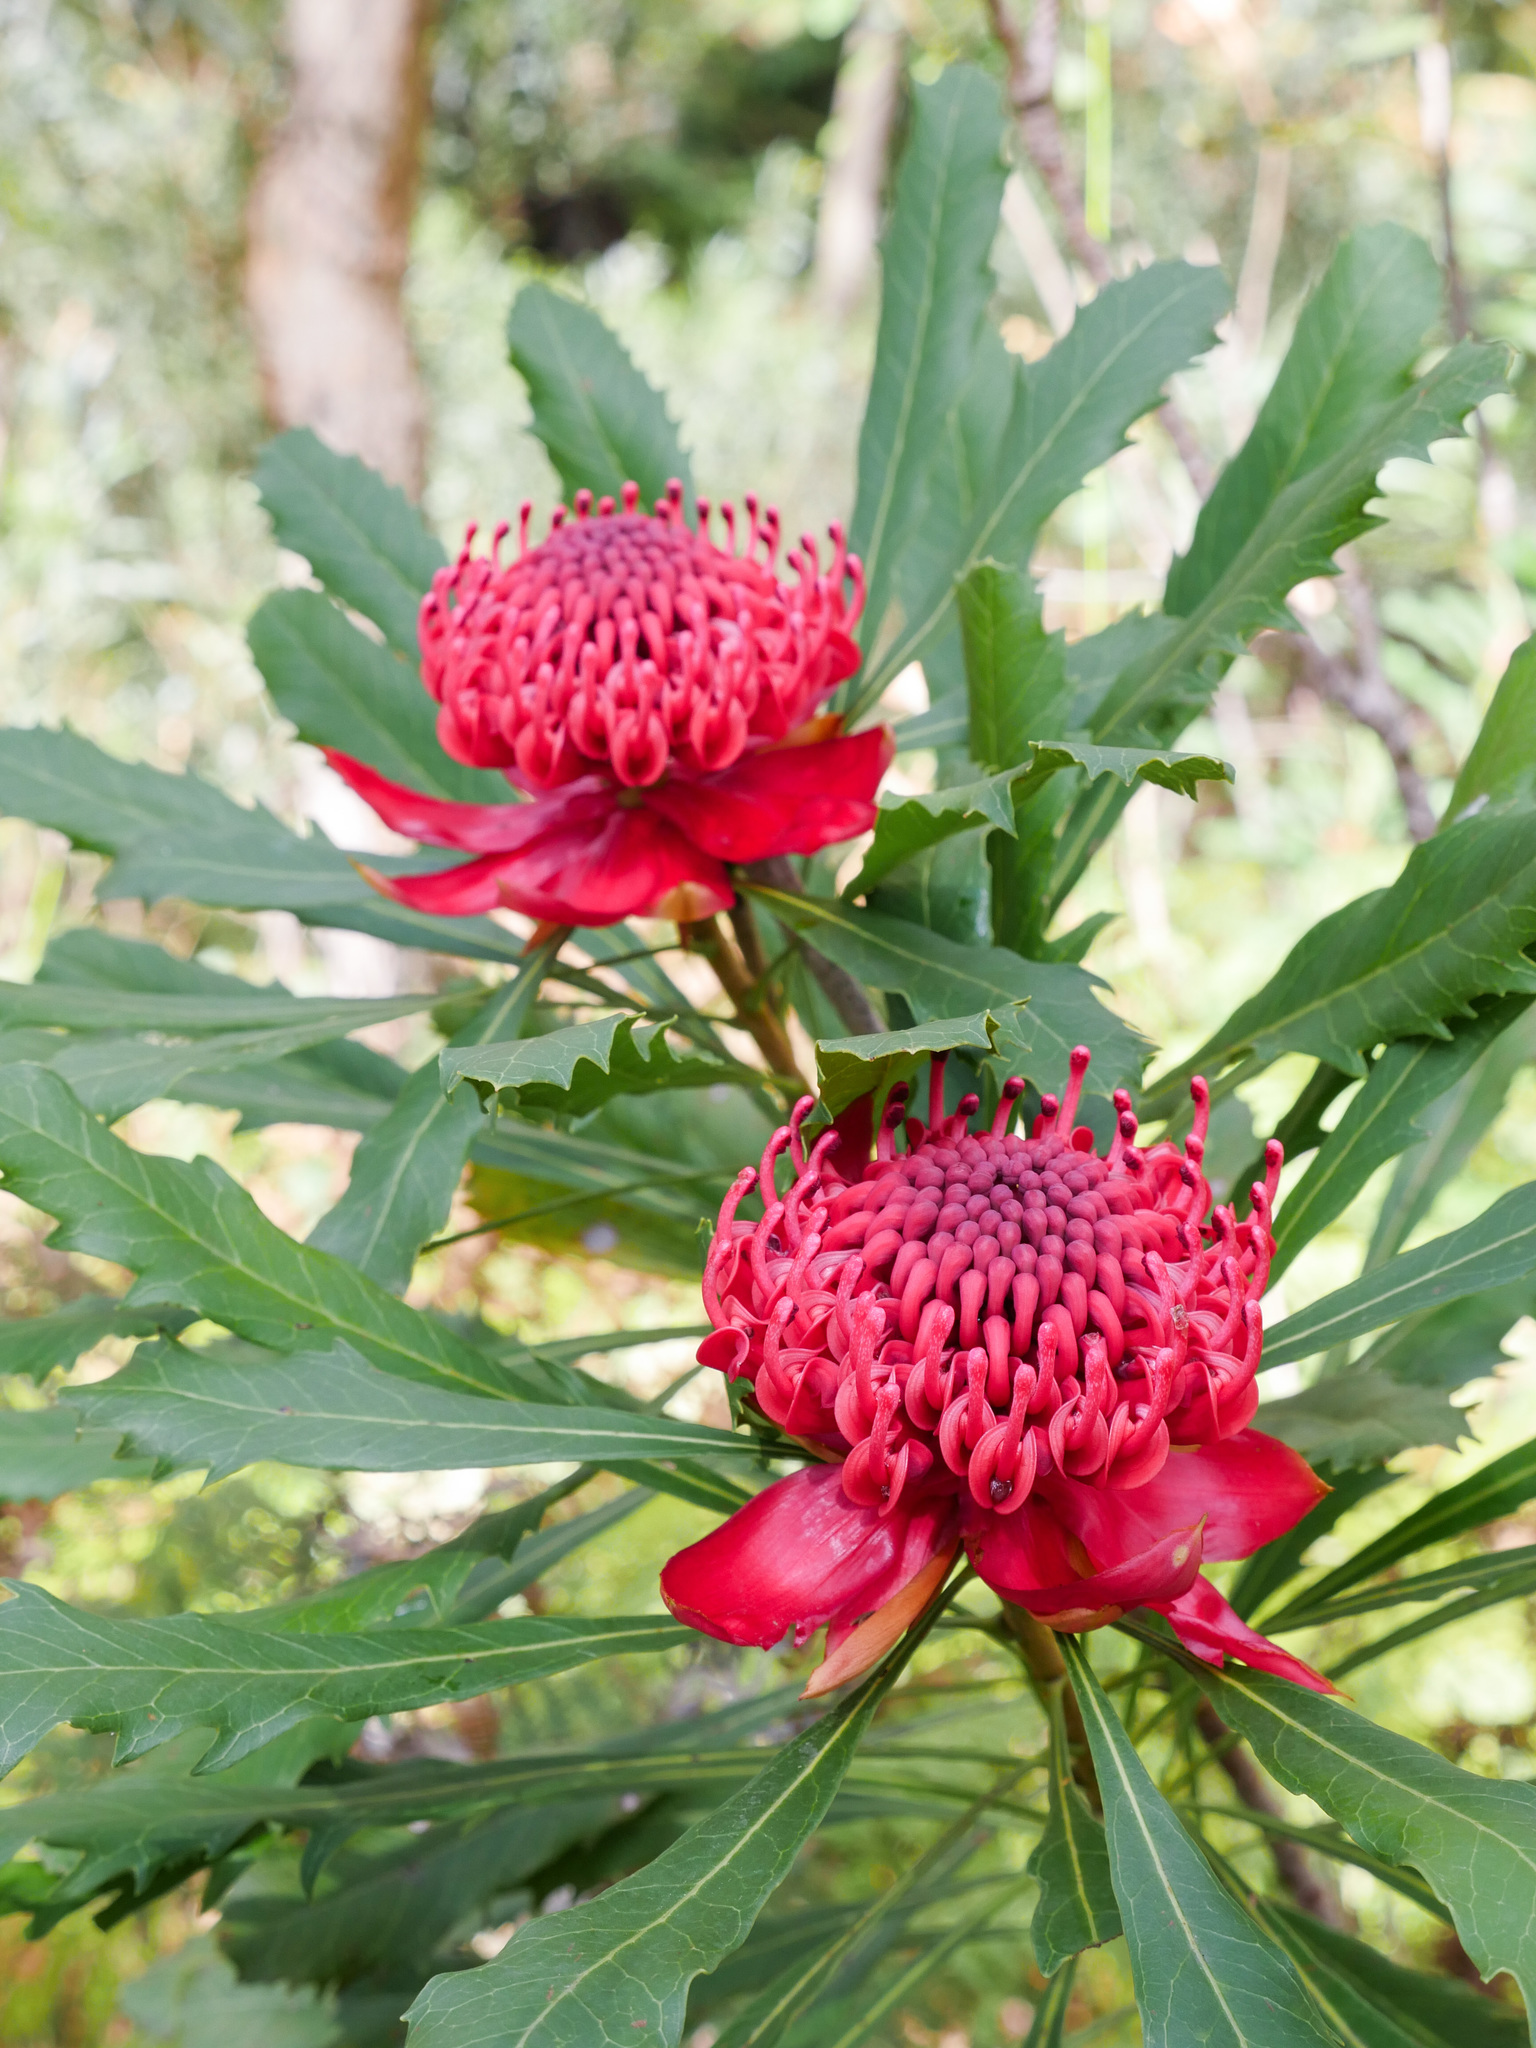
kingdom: Plantae
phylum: Tracheophyta
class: Magnoliopsida
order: Proteales
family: Proteaceae
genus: Telopea
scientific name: Telopea speciosissima
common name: New south wales waratah
